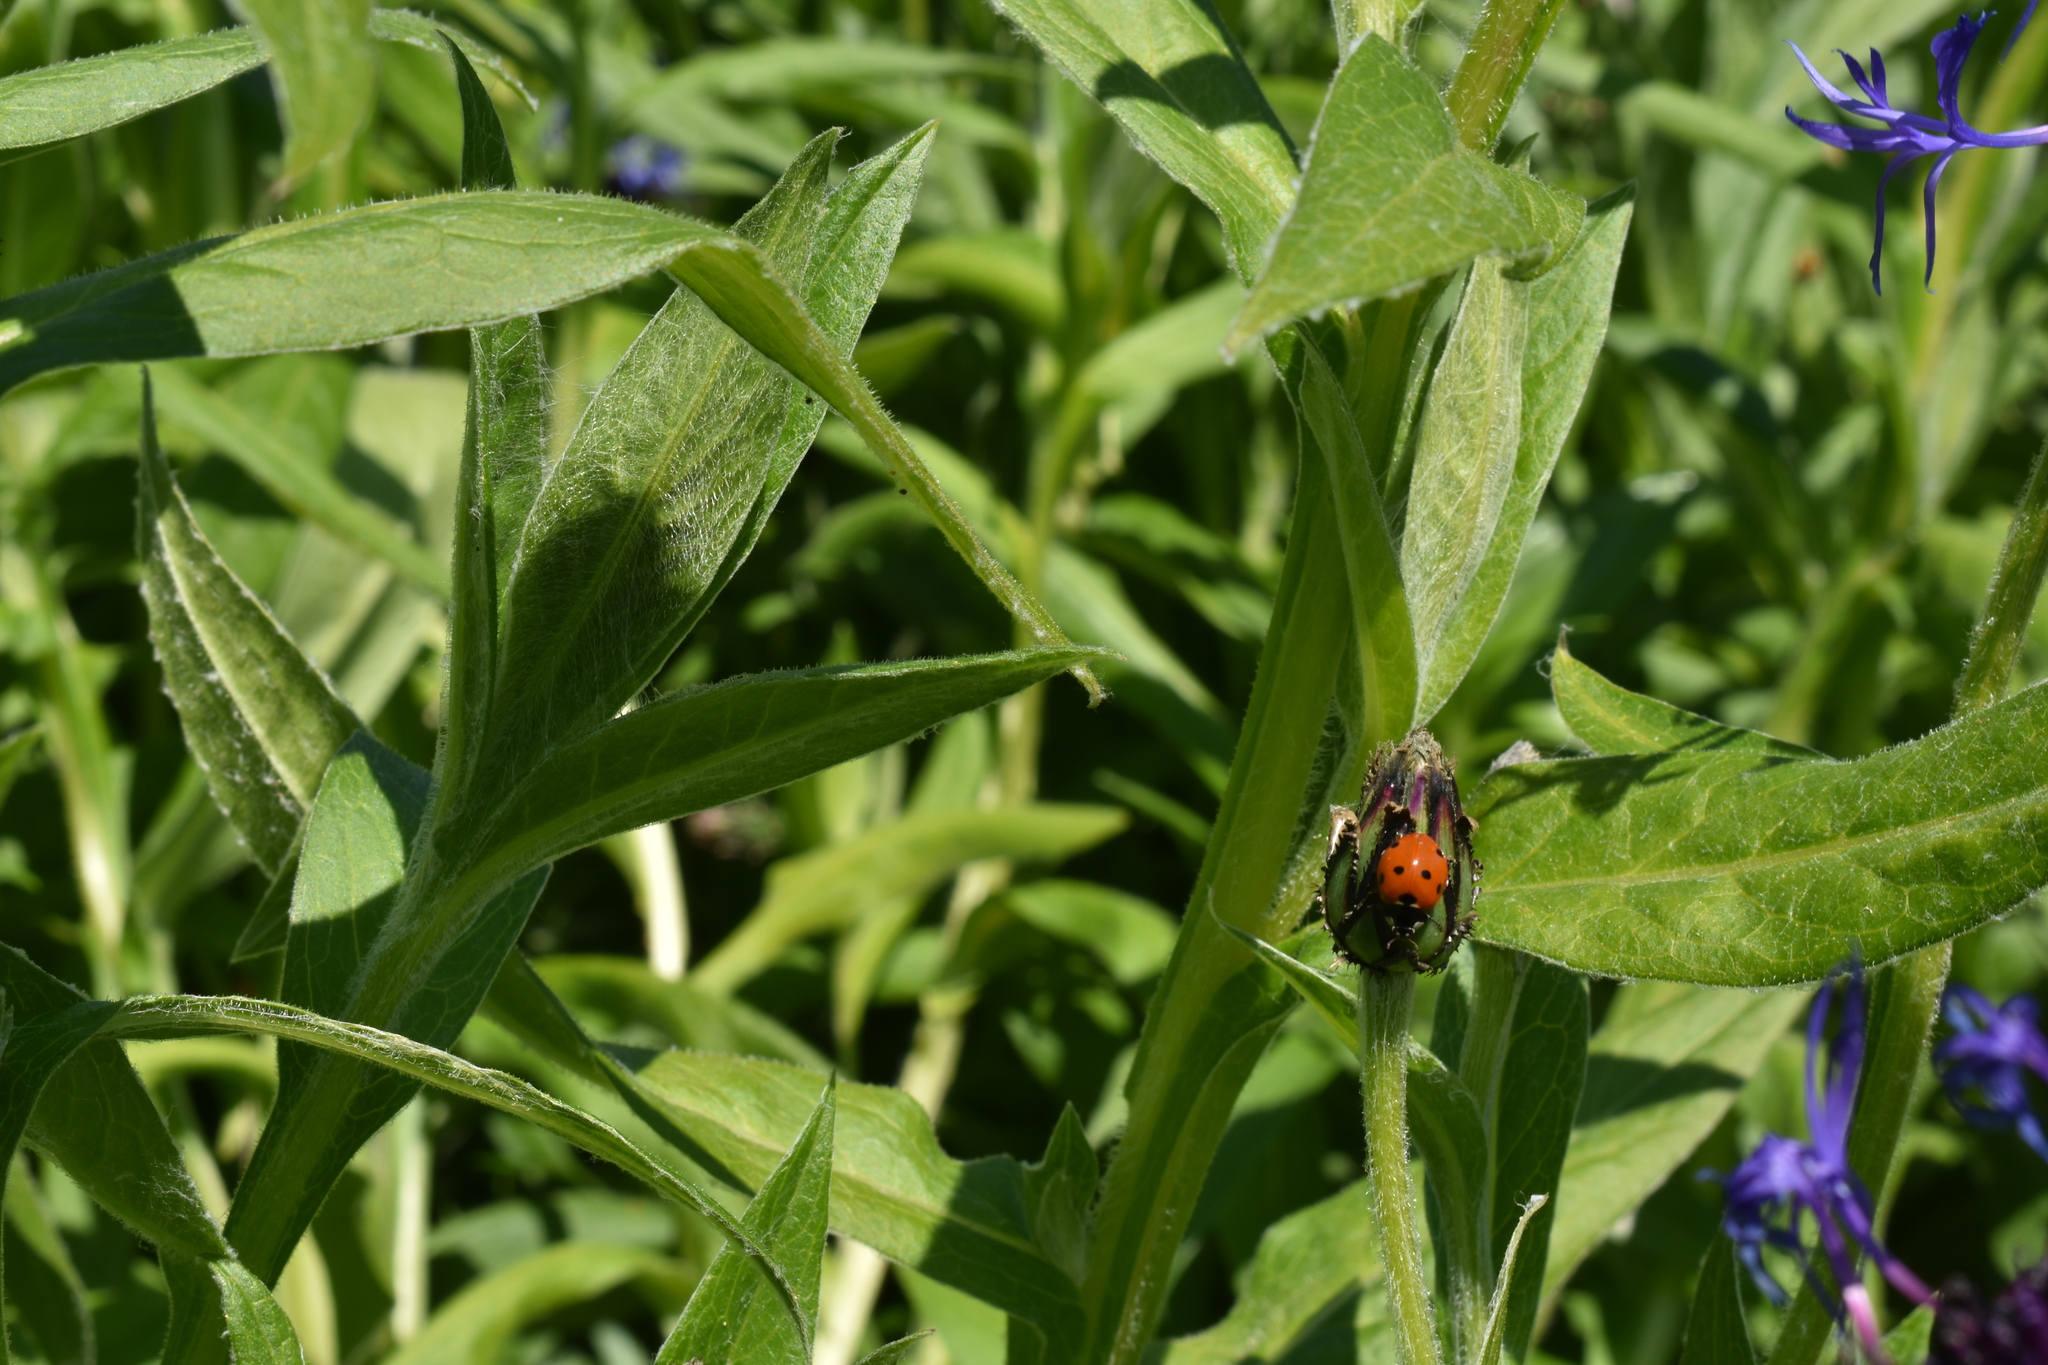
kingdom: Animalia
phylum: Arthropoda
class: Insecta
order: Coleoptera
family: Coccinellidae
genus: Coccinella
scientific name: Coccinella septempunctata
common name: Sevenspotted lady beetle
